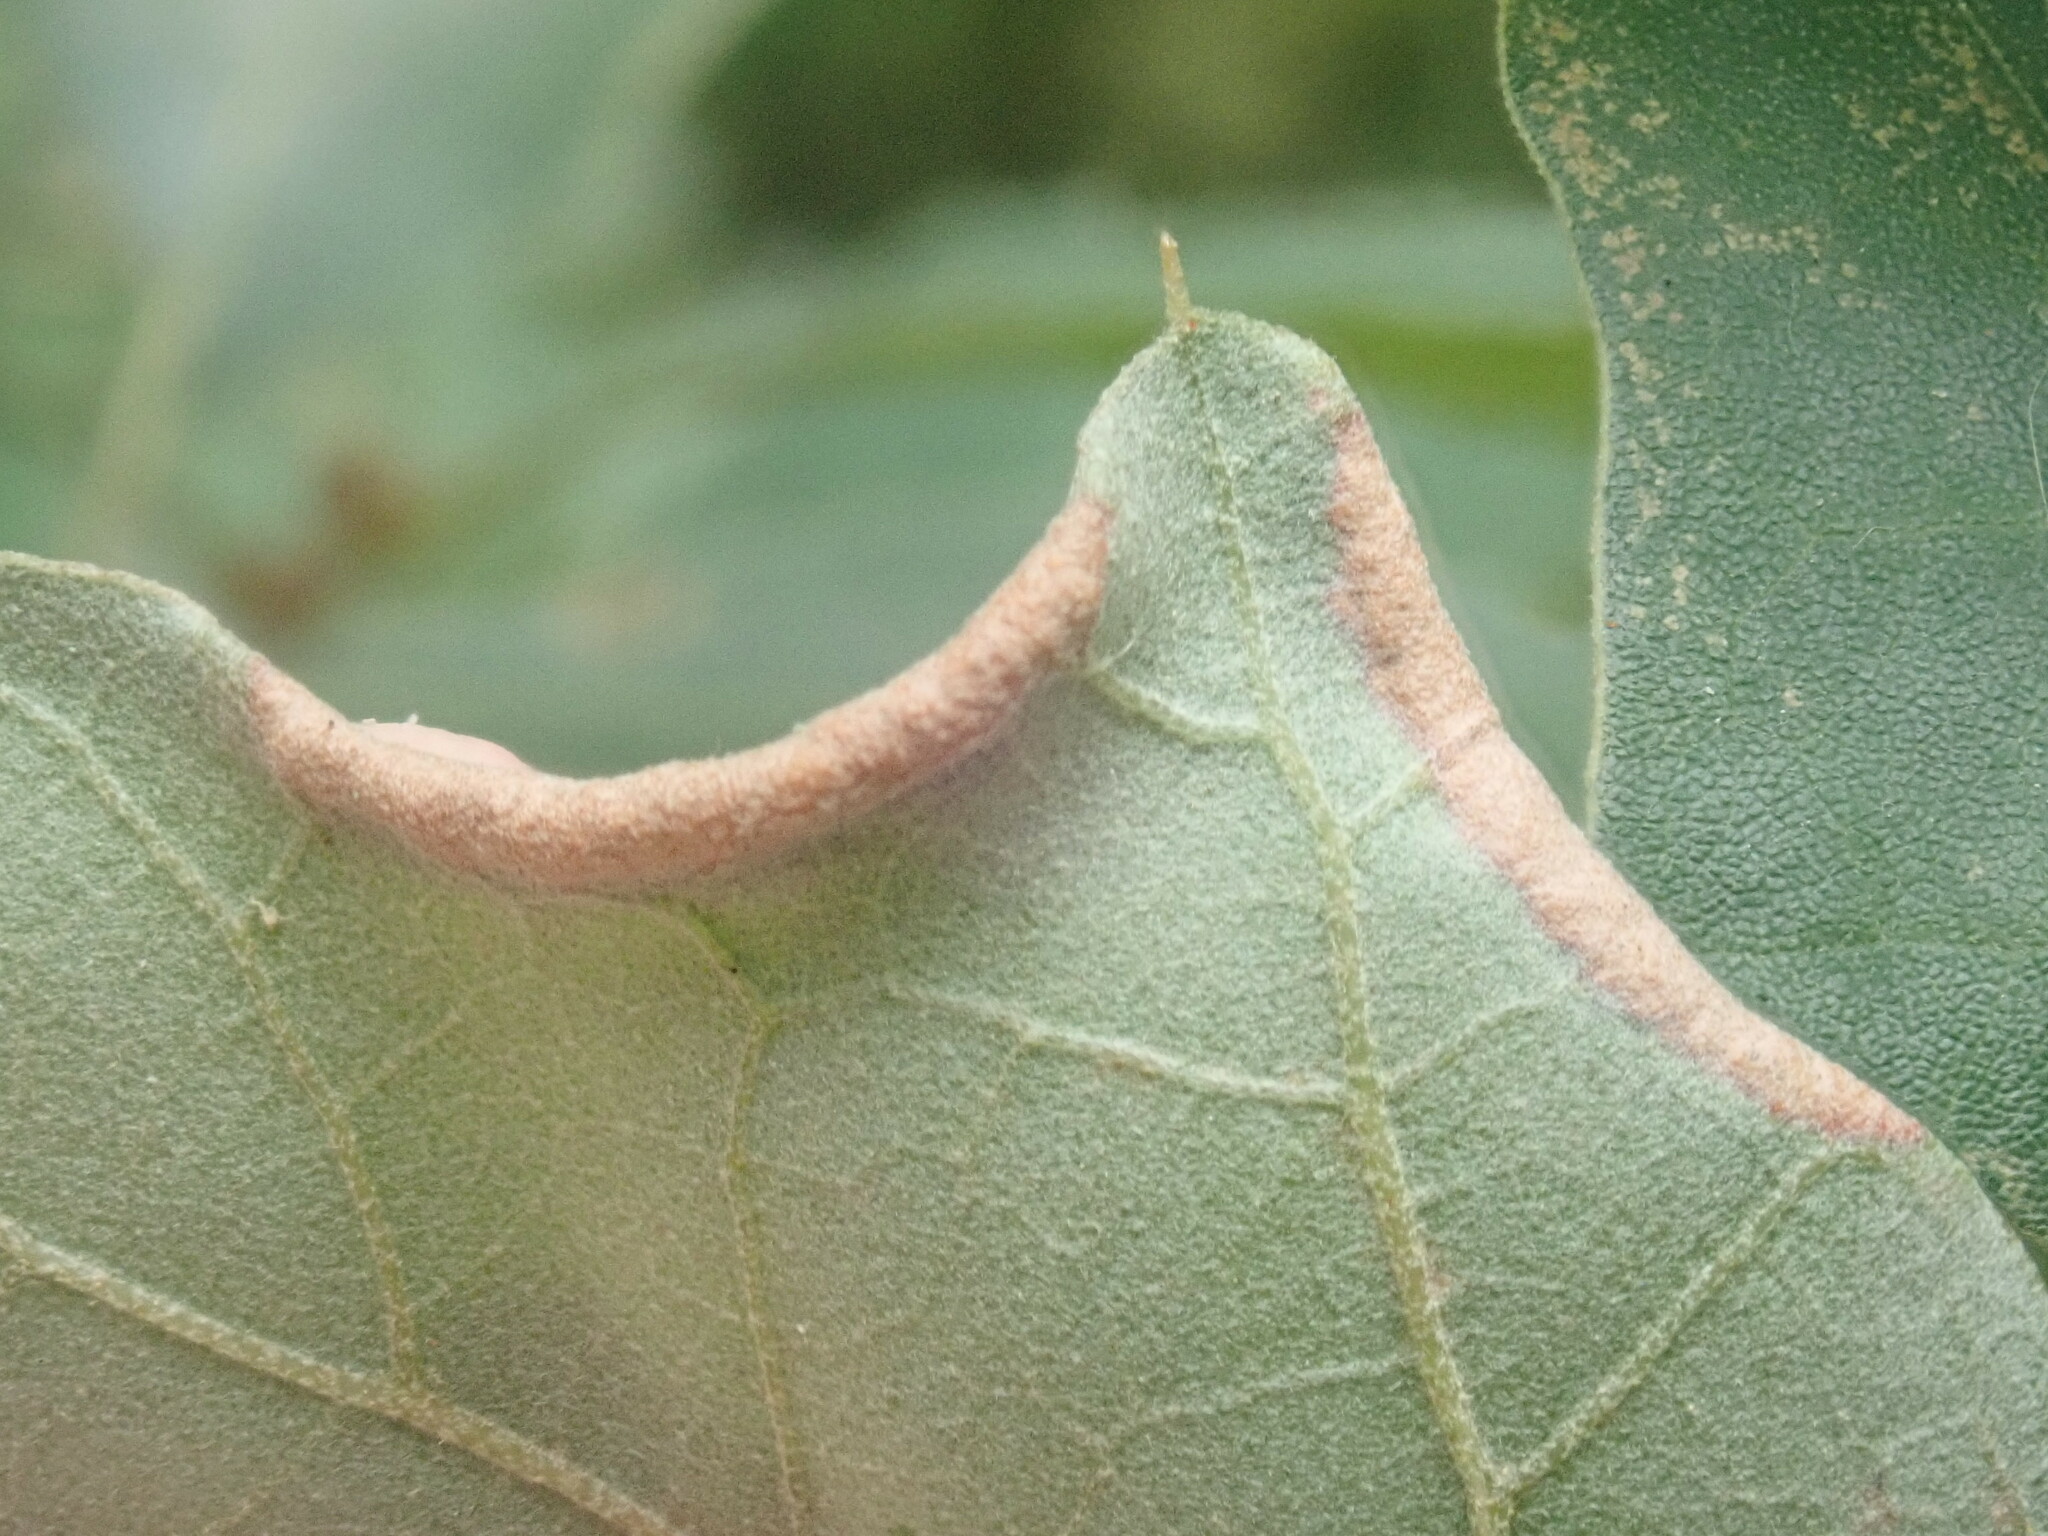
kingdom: Animalia
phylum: Arthropoda
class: Insecta
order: Diptera
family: Cecidomyiidae
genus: Macrodiplosis
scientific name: Macrodiplosis erubescens
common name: Marginal leaf fold gall midge
